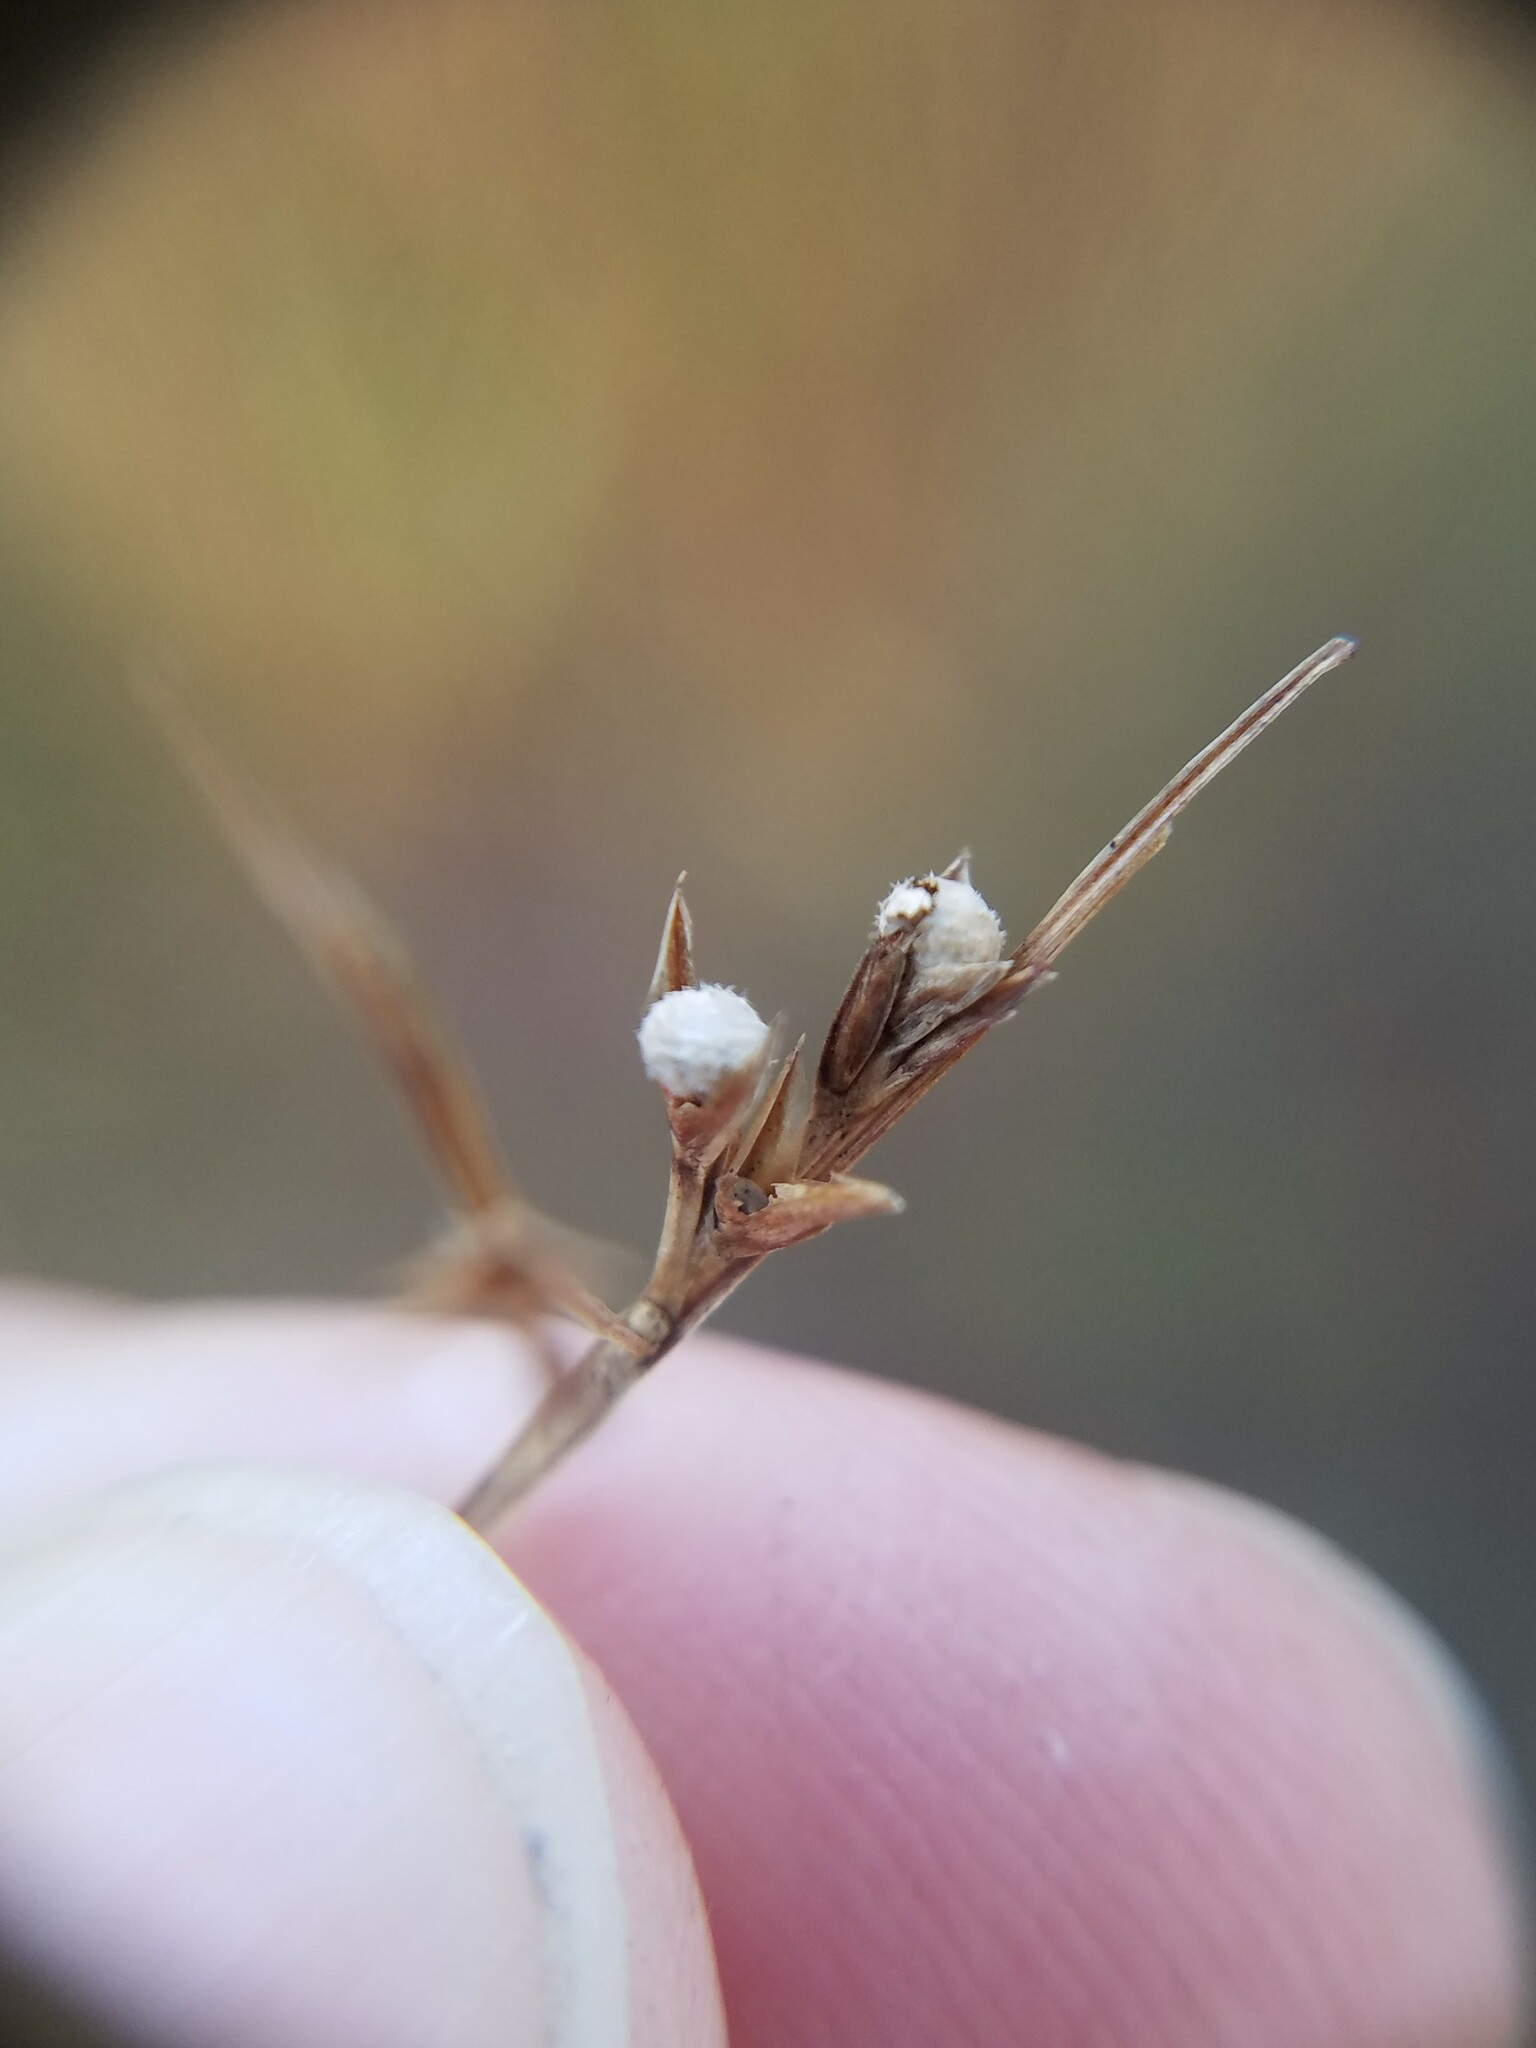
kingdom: Plantae
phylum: Tracheophyta
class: Liliopsida
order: Poales
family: Cyperaceae
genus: Scleria
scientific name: Scleria muehlenbergii
